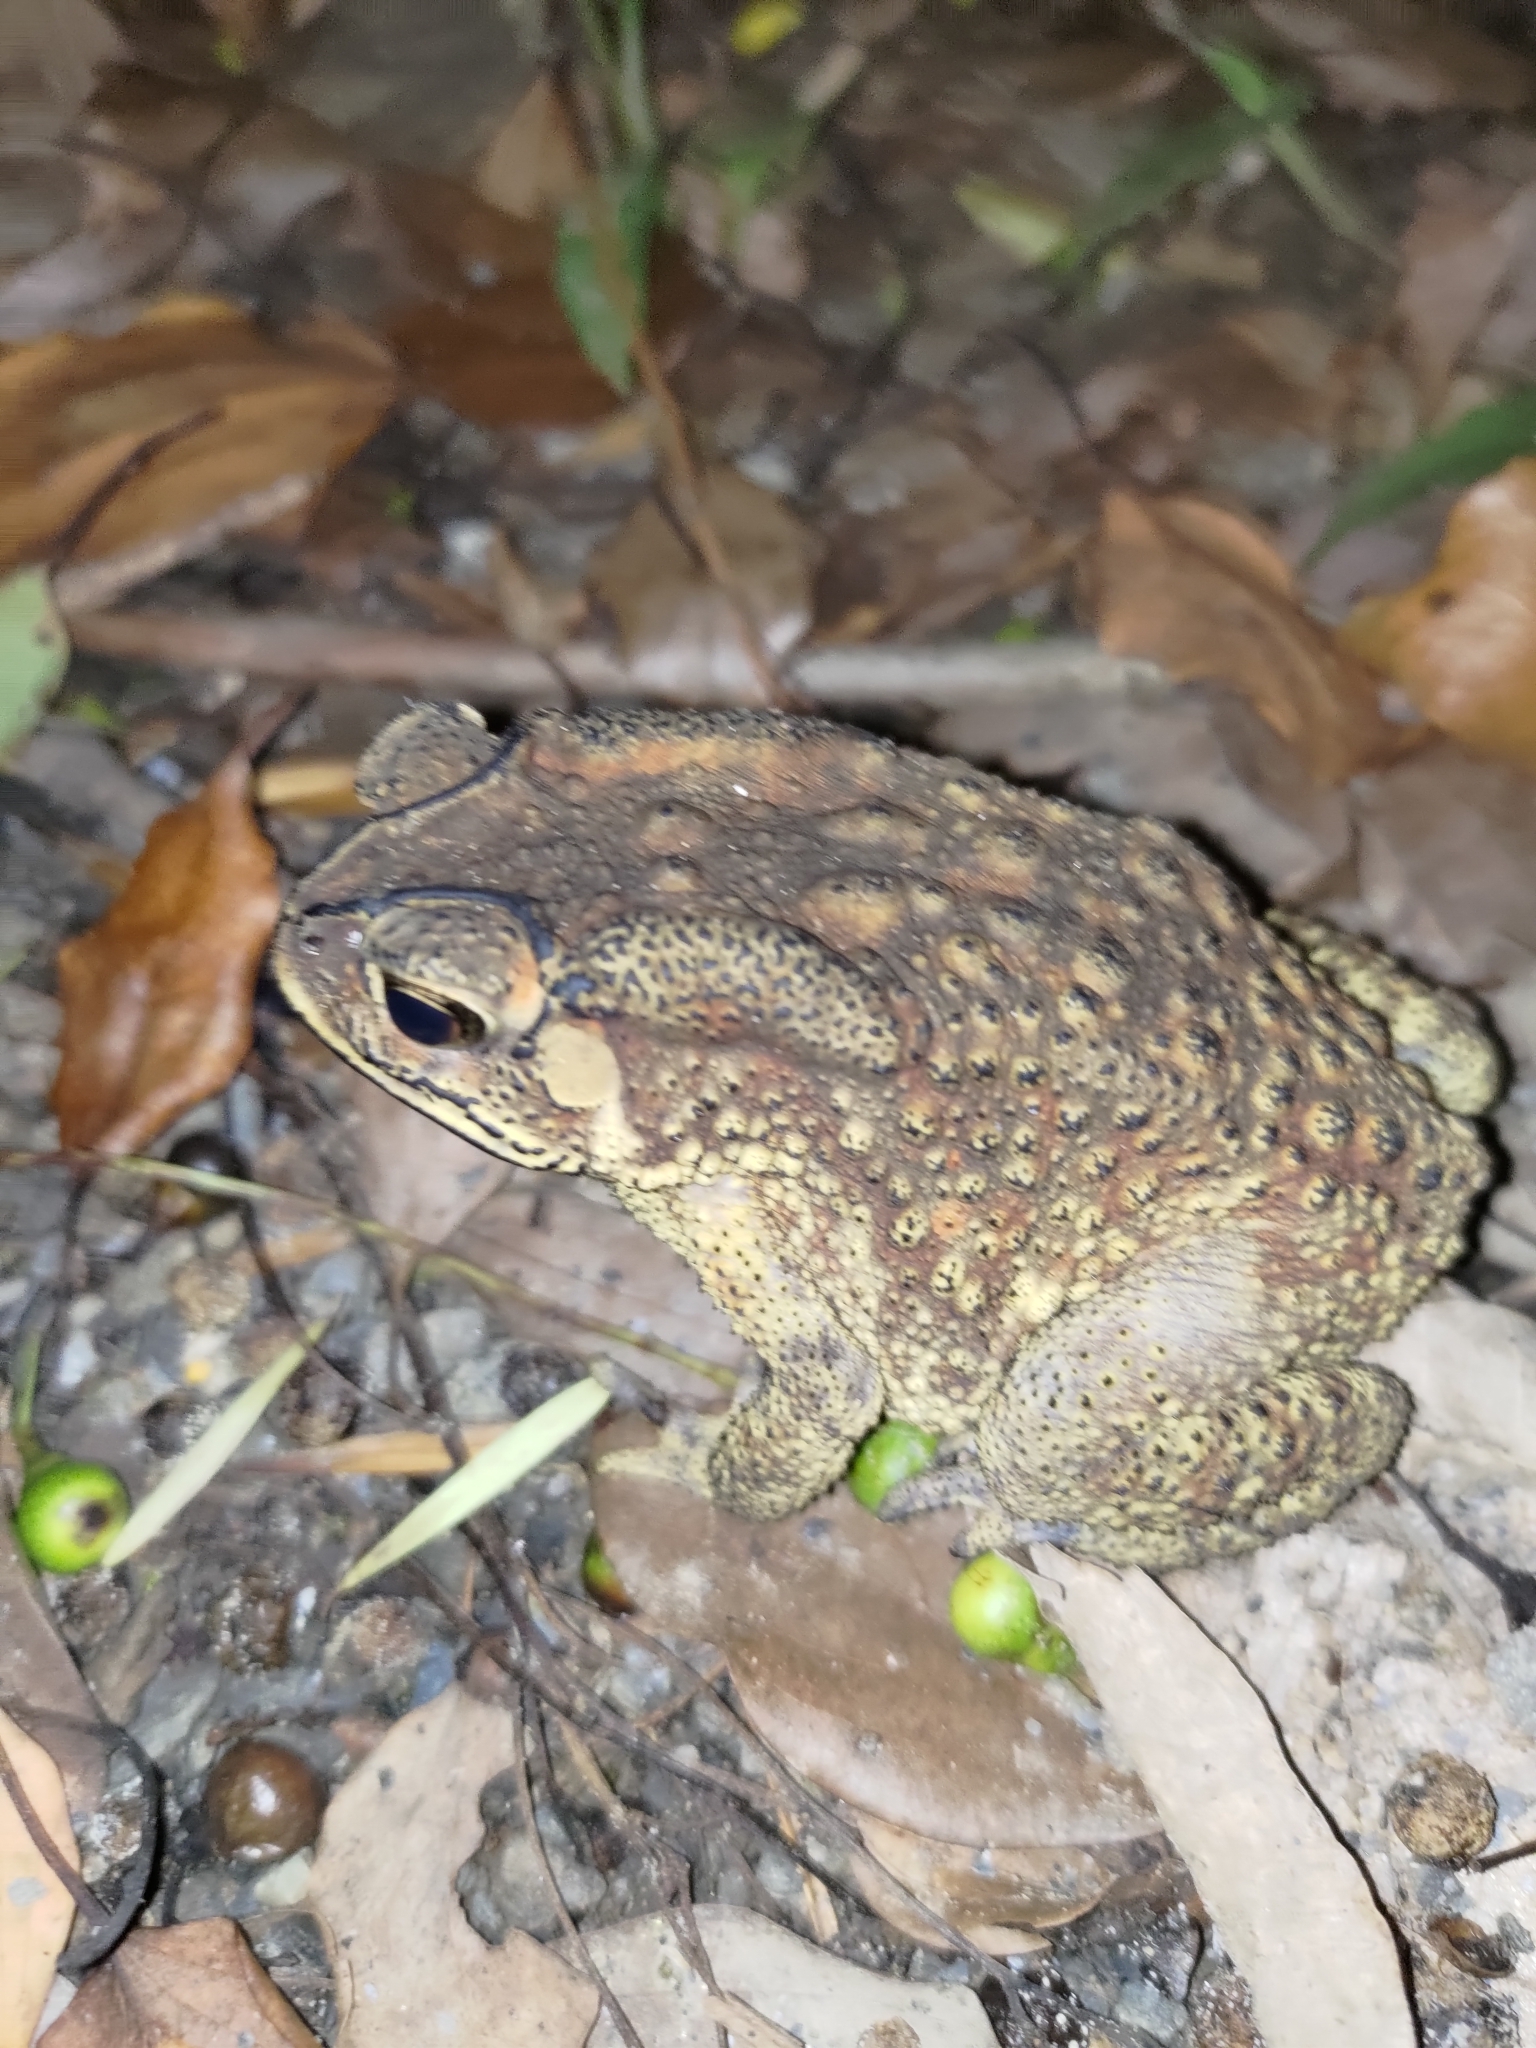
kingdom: Animalia
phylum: Chordata
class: Amphibia
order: Anura
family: Bufonidae
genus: Duttaphrynus
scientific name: Duttaphrynus melanostictus
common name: Common sunda toad
